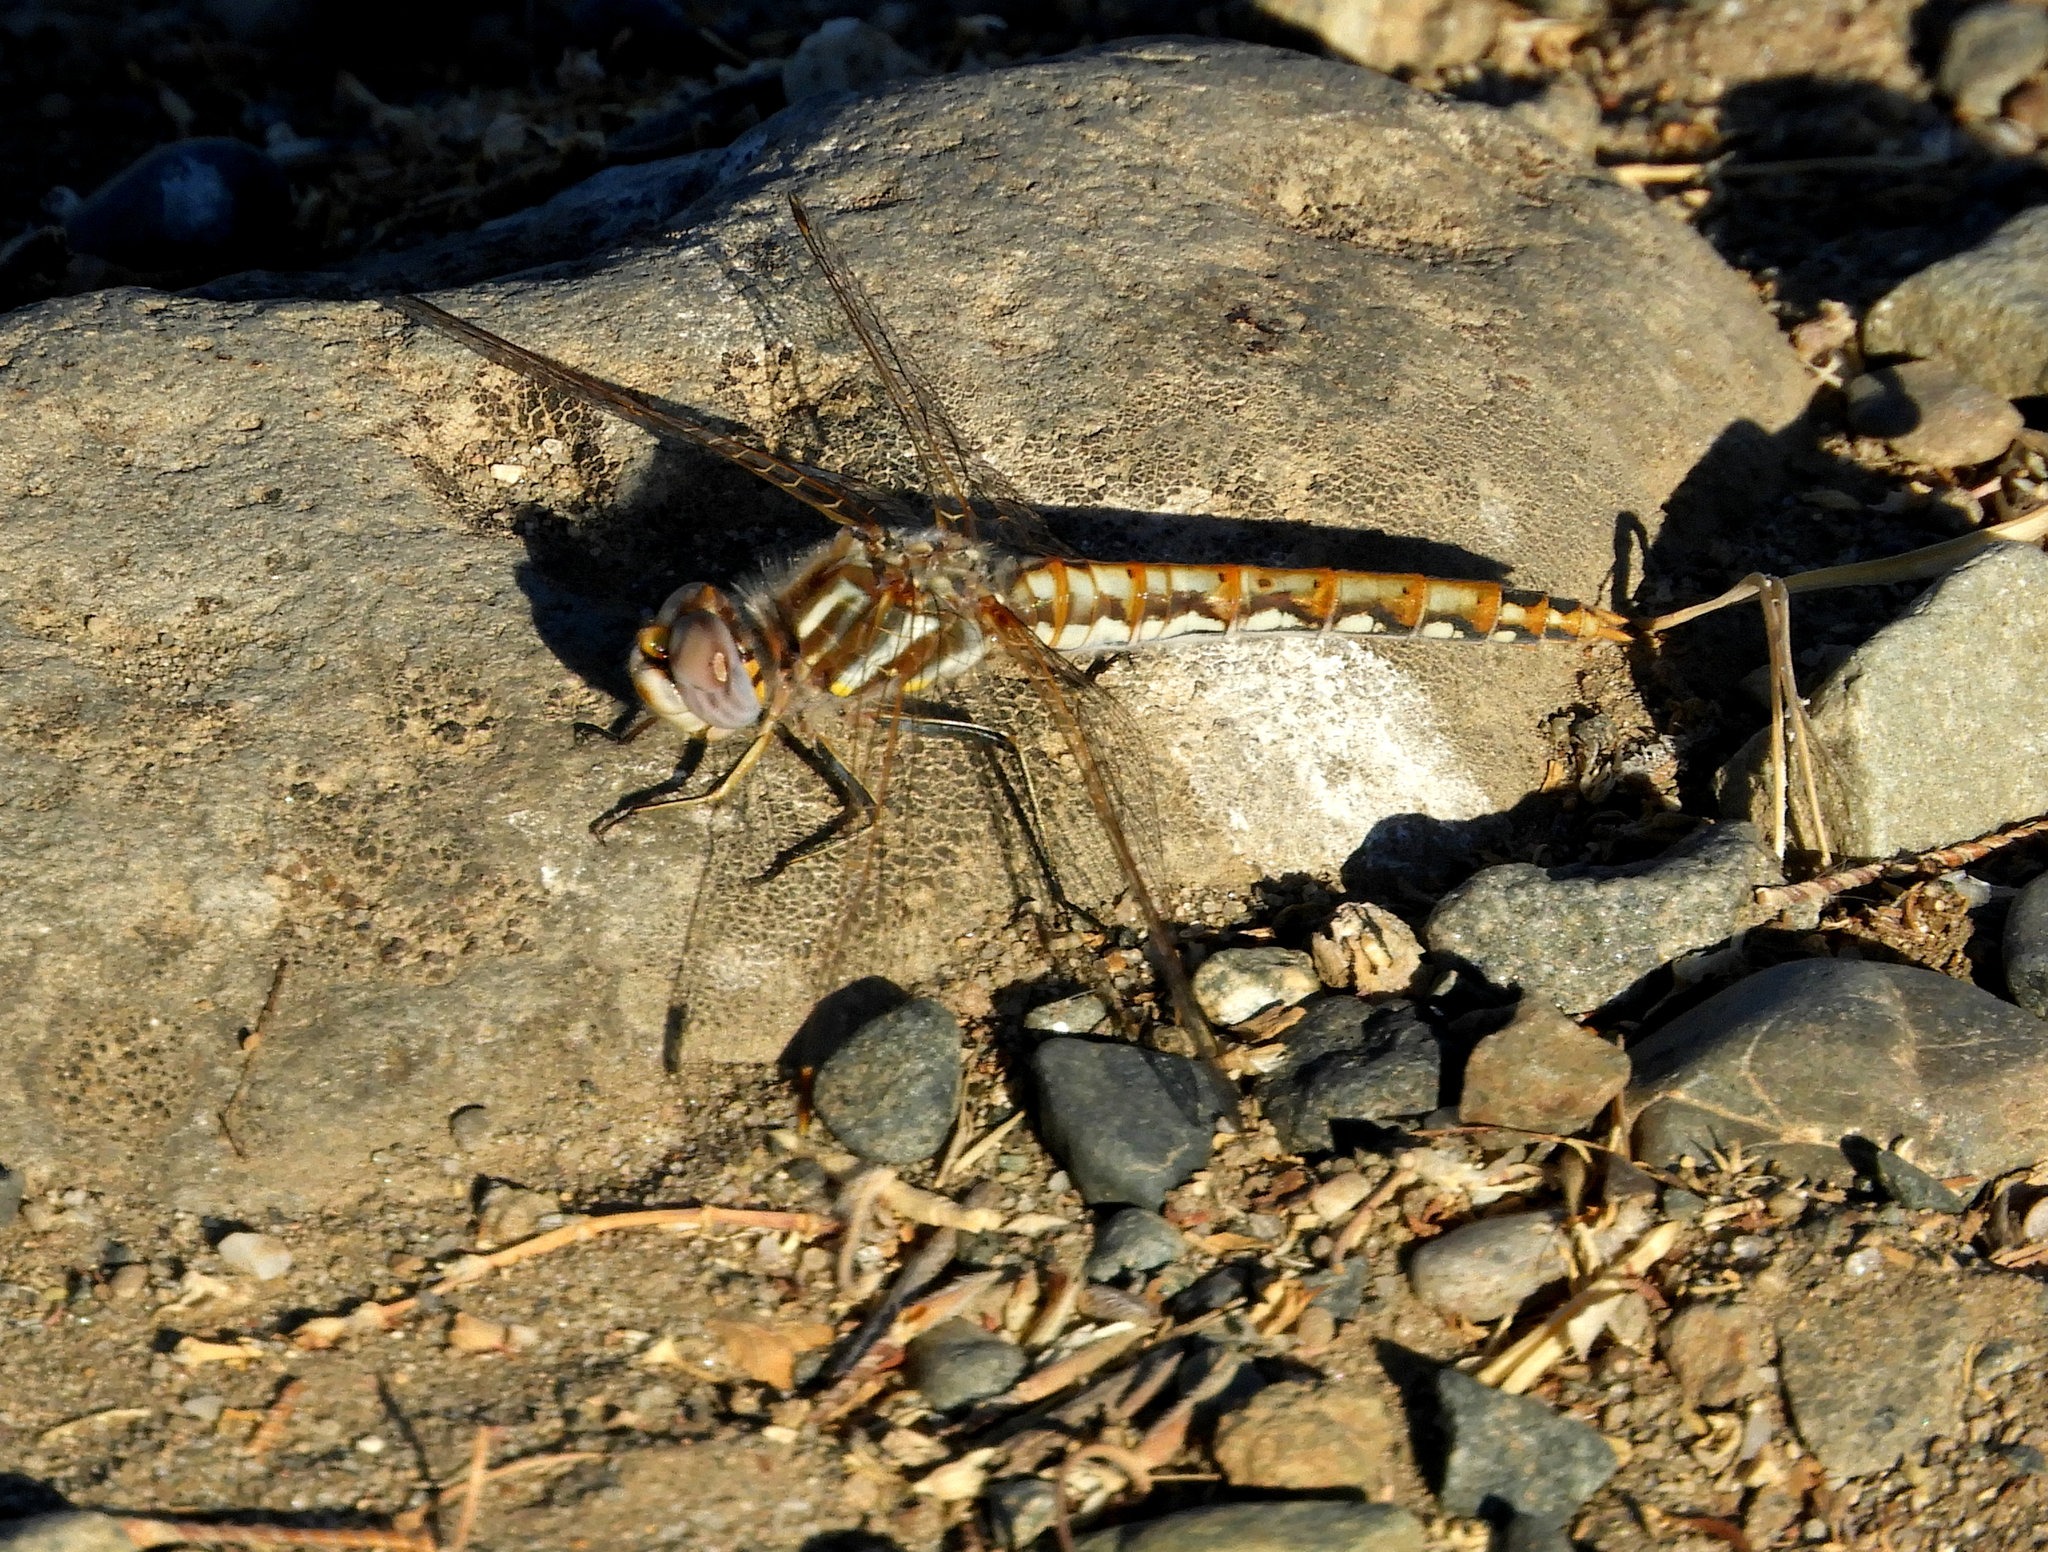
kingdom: Animalia
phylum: Arthropoda
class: Insecta
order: Odonata
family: Libellulidae
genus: Sympetrum
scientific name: Sympetrum corruptum
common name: Variegated meadowhawk
